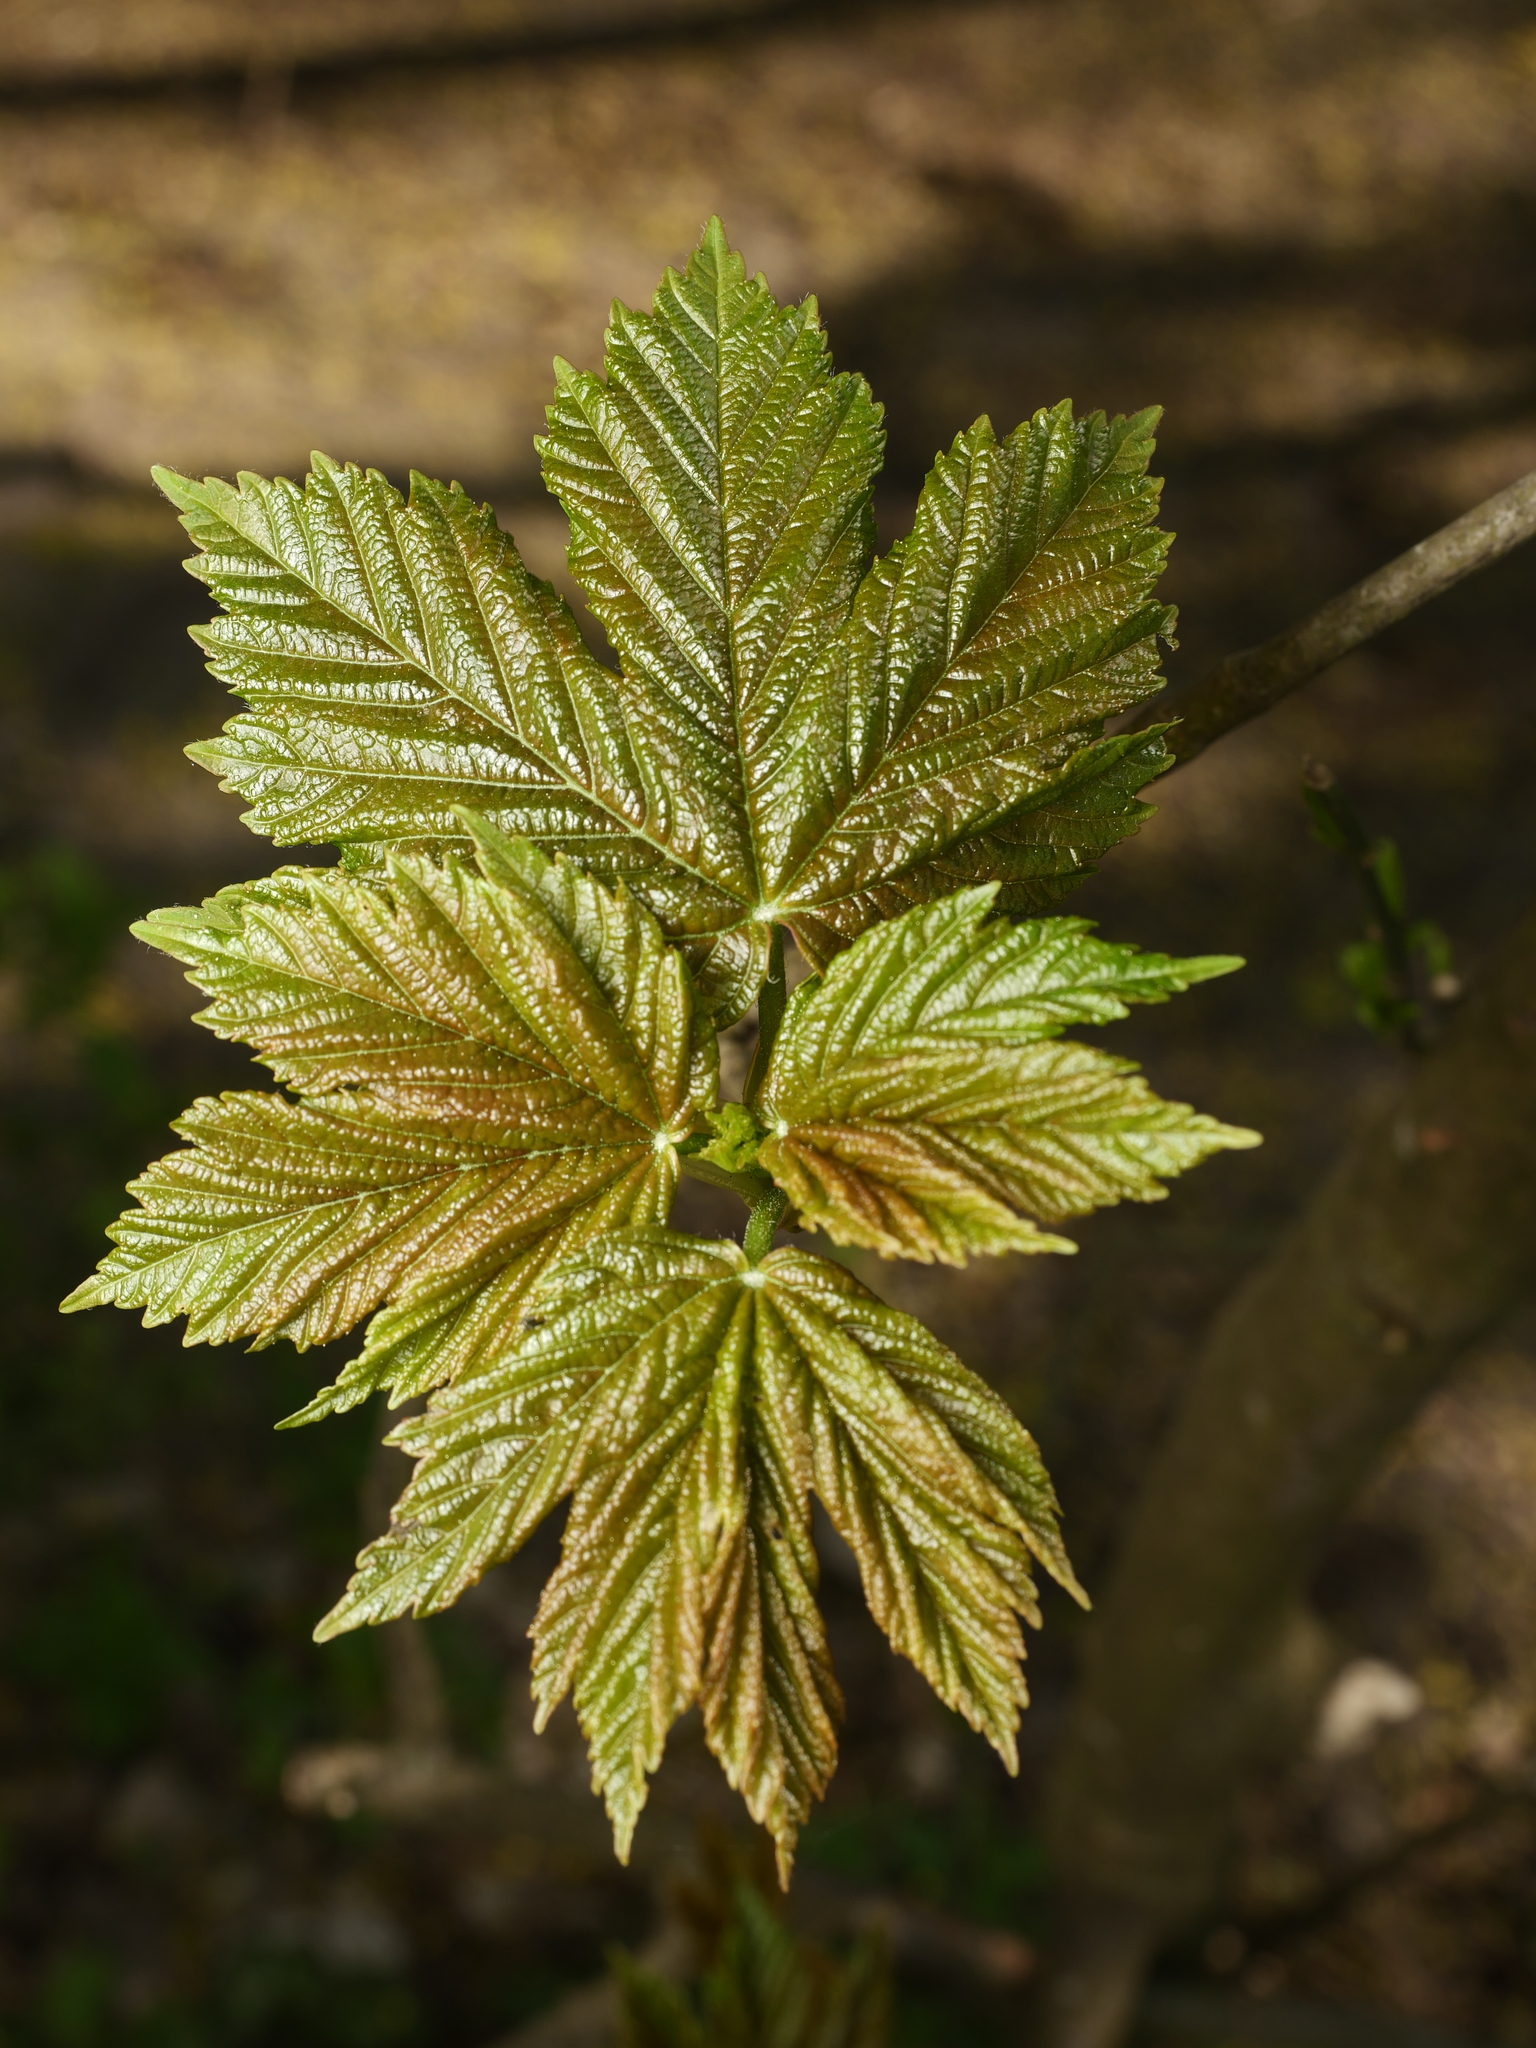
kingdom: Plantae
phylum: Tracheophyta
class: Magnoliopsida
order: Sapindales
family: Sapindaceae
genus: Acer
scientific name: Acer pseudoplatanus
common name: Sycamore
